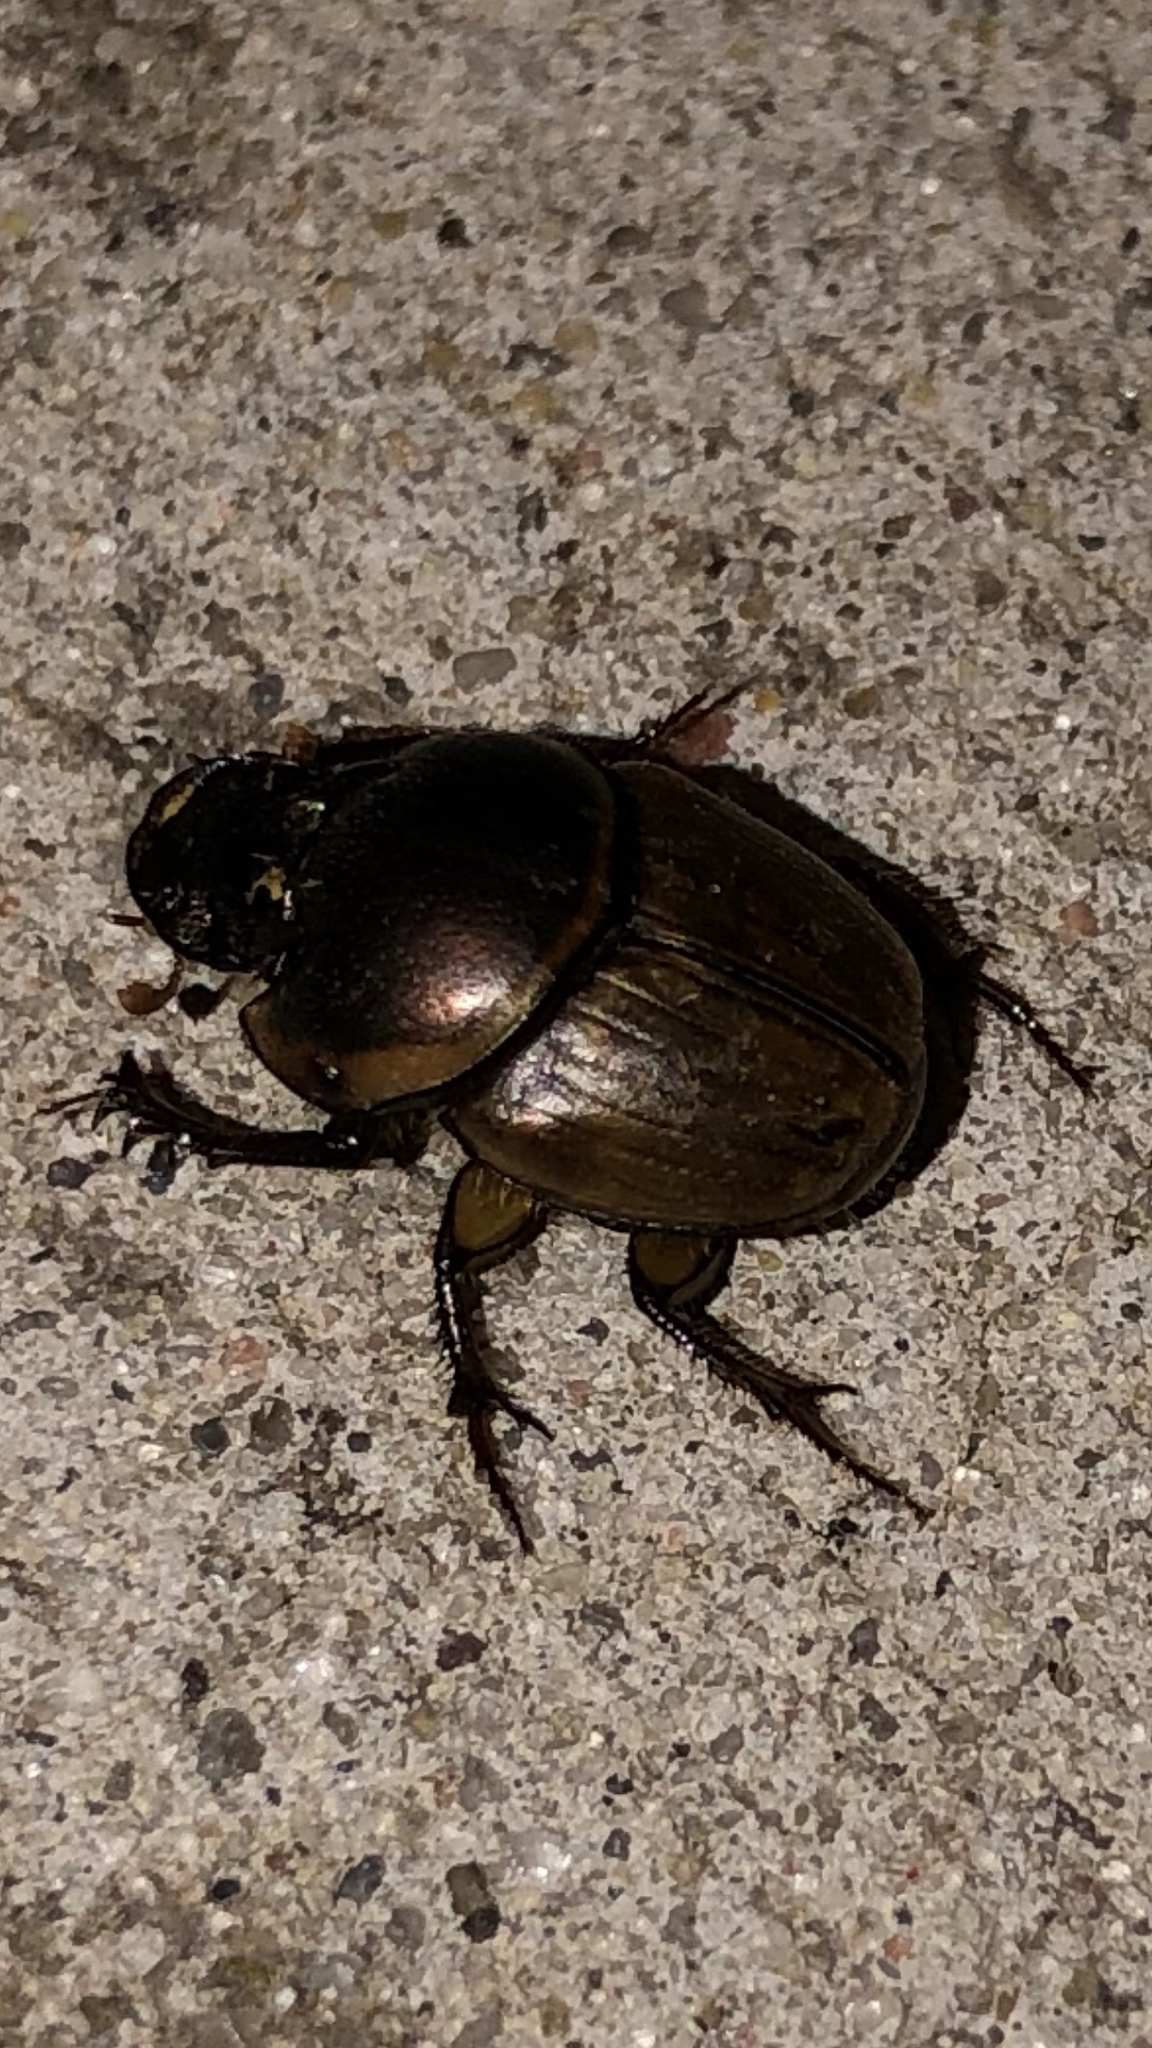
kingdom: Animalia
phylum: Arthropoda
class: Insecta
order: Coleoptera
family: Scarabaeidae
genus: Digitonthophagus
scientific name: Digitonthophagus gazella
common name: Brown dung beetle
